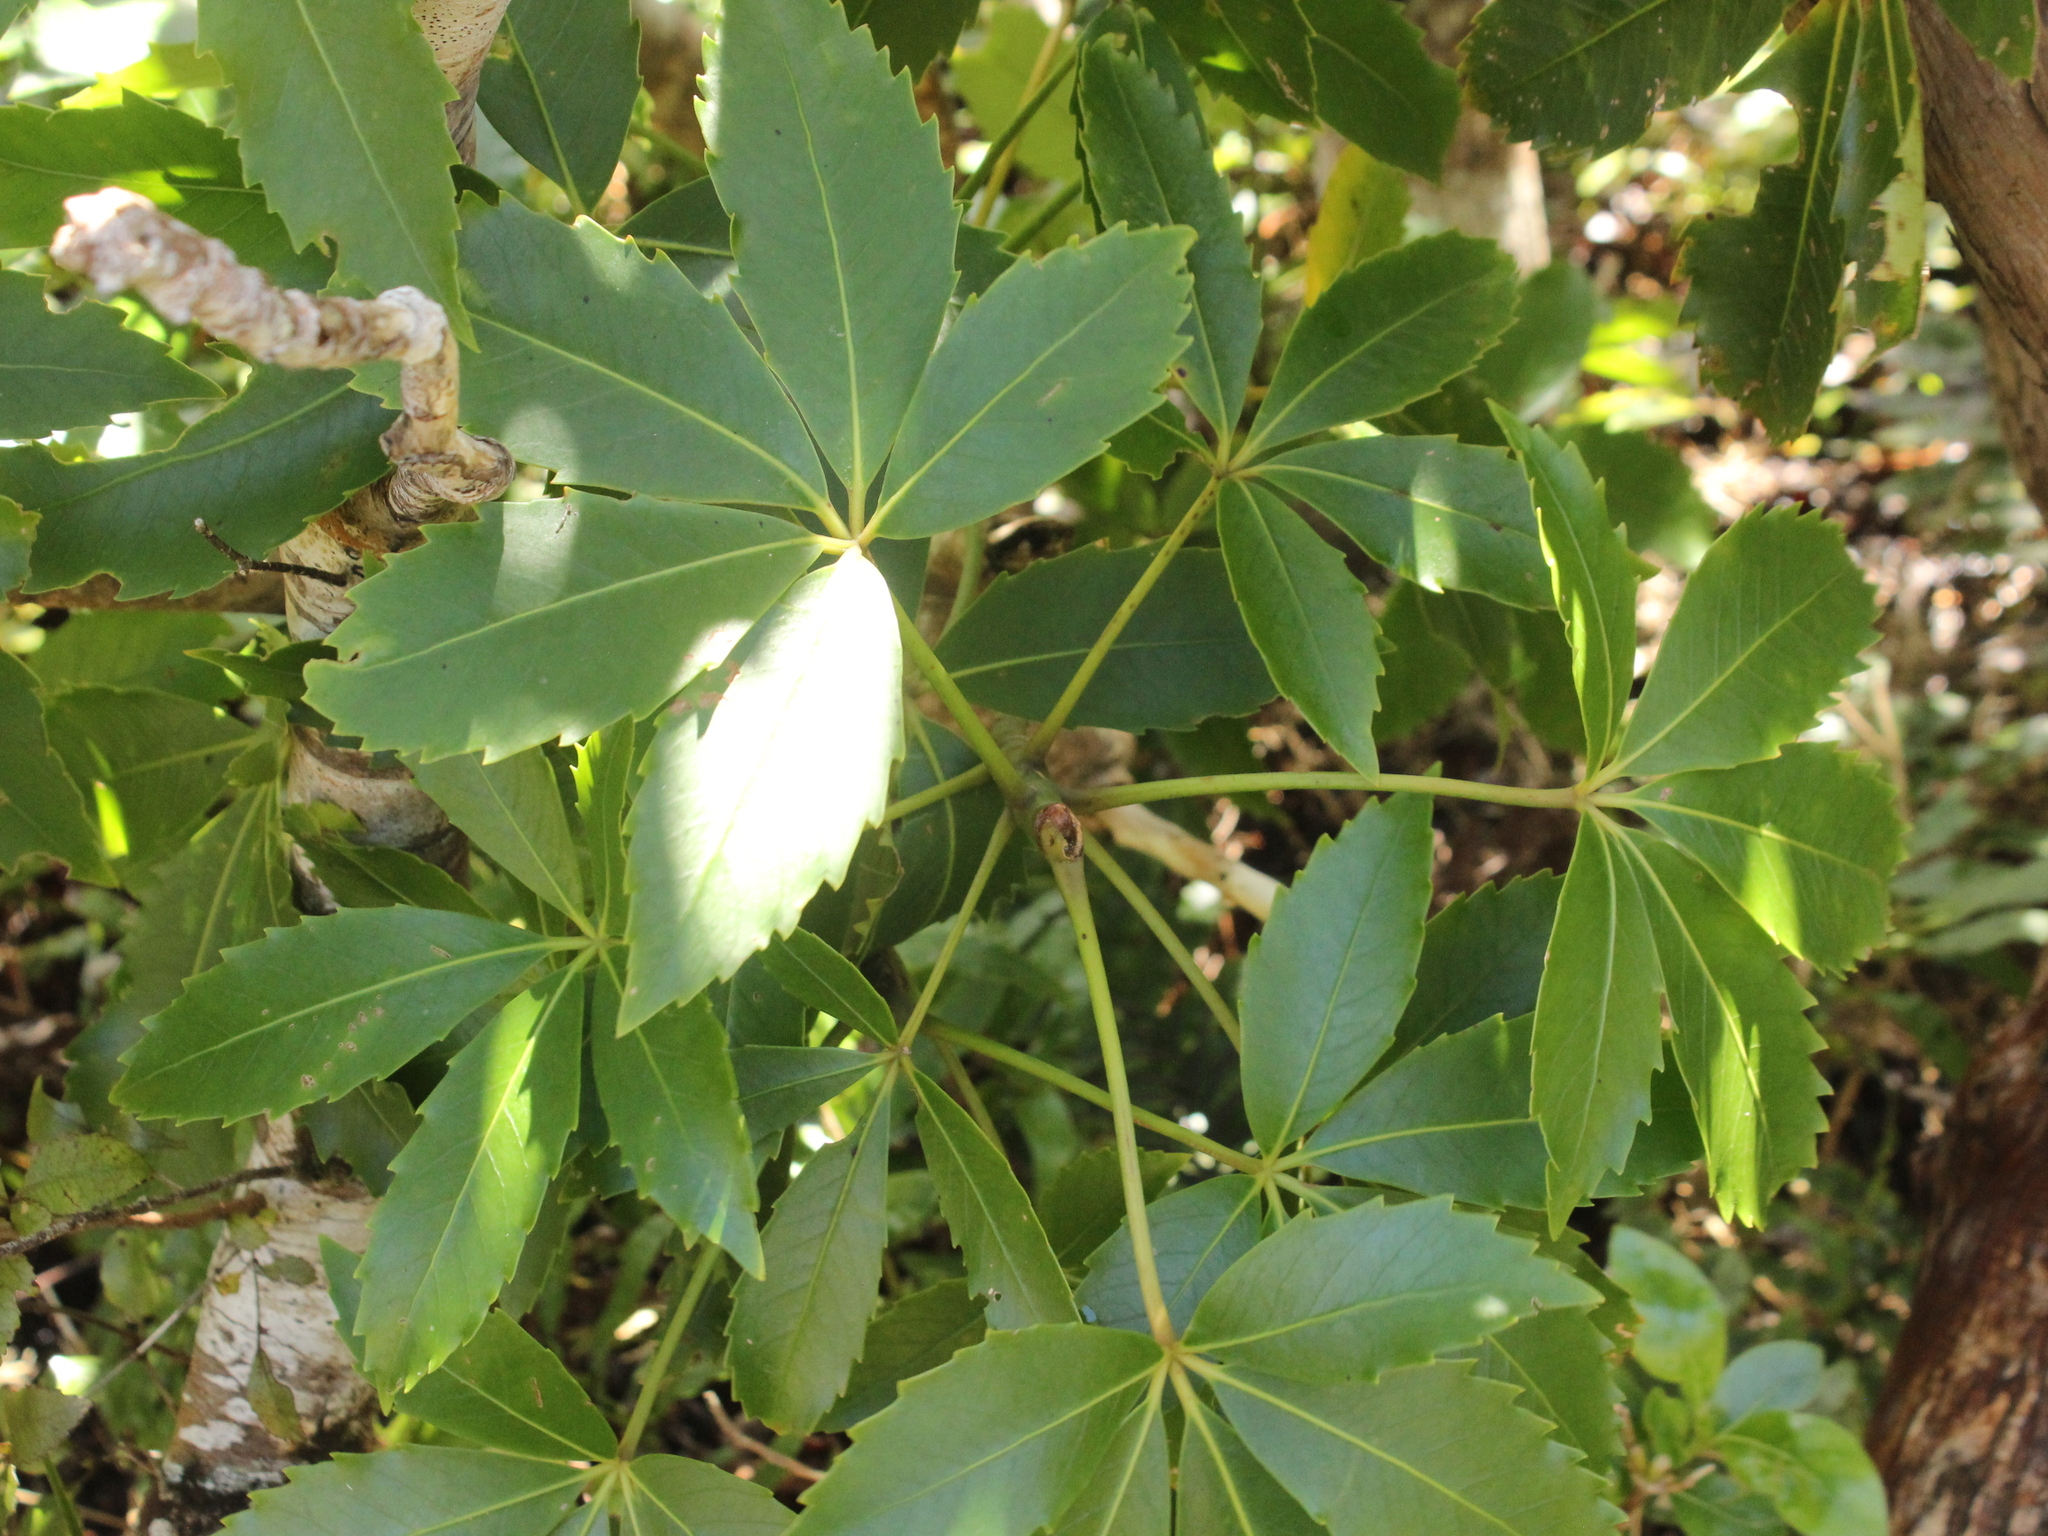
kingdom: Plantae
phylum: Tracheophyta
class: Magnoliopsida
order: Apiales
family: Araliaceae
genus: Neopanax
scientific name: Neopanax colensoi
